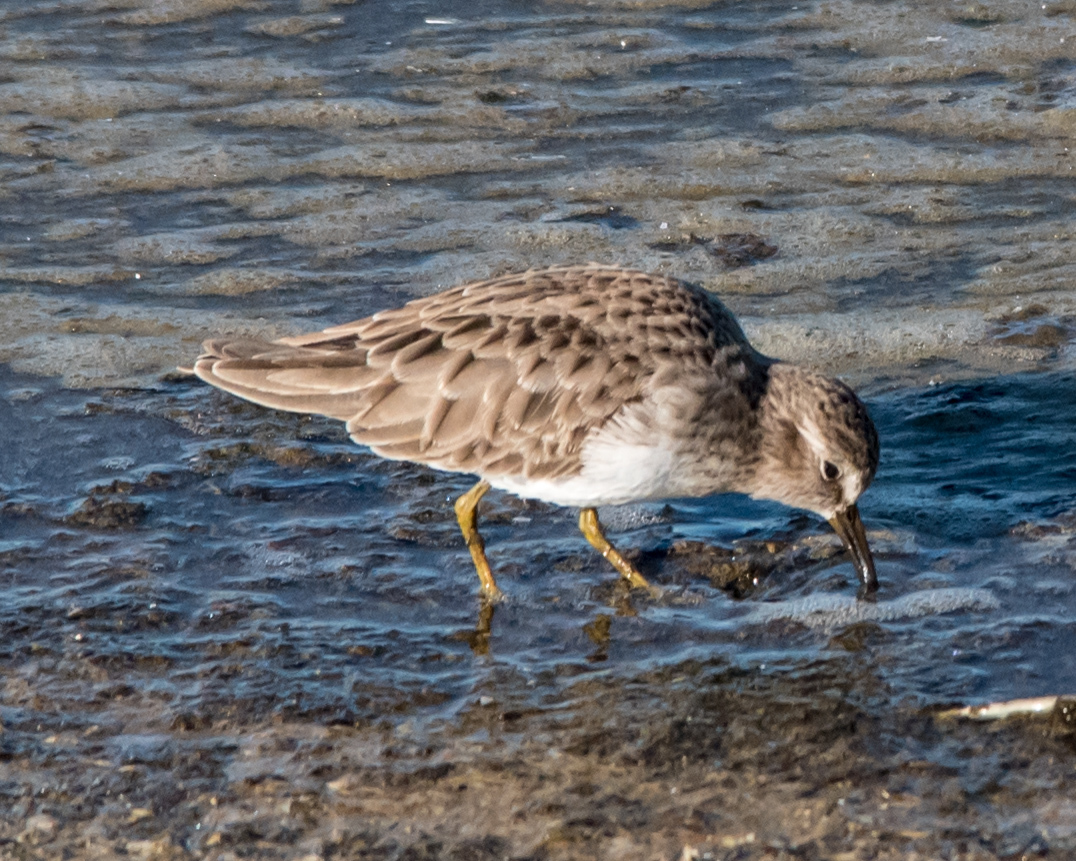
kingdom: Animalia
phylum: Chordata
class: Aves
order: Charadriiformes
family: Scolopacidae
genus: Calidris
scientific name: Calidris minutilla
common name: Least sandpiper
